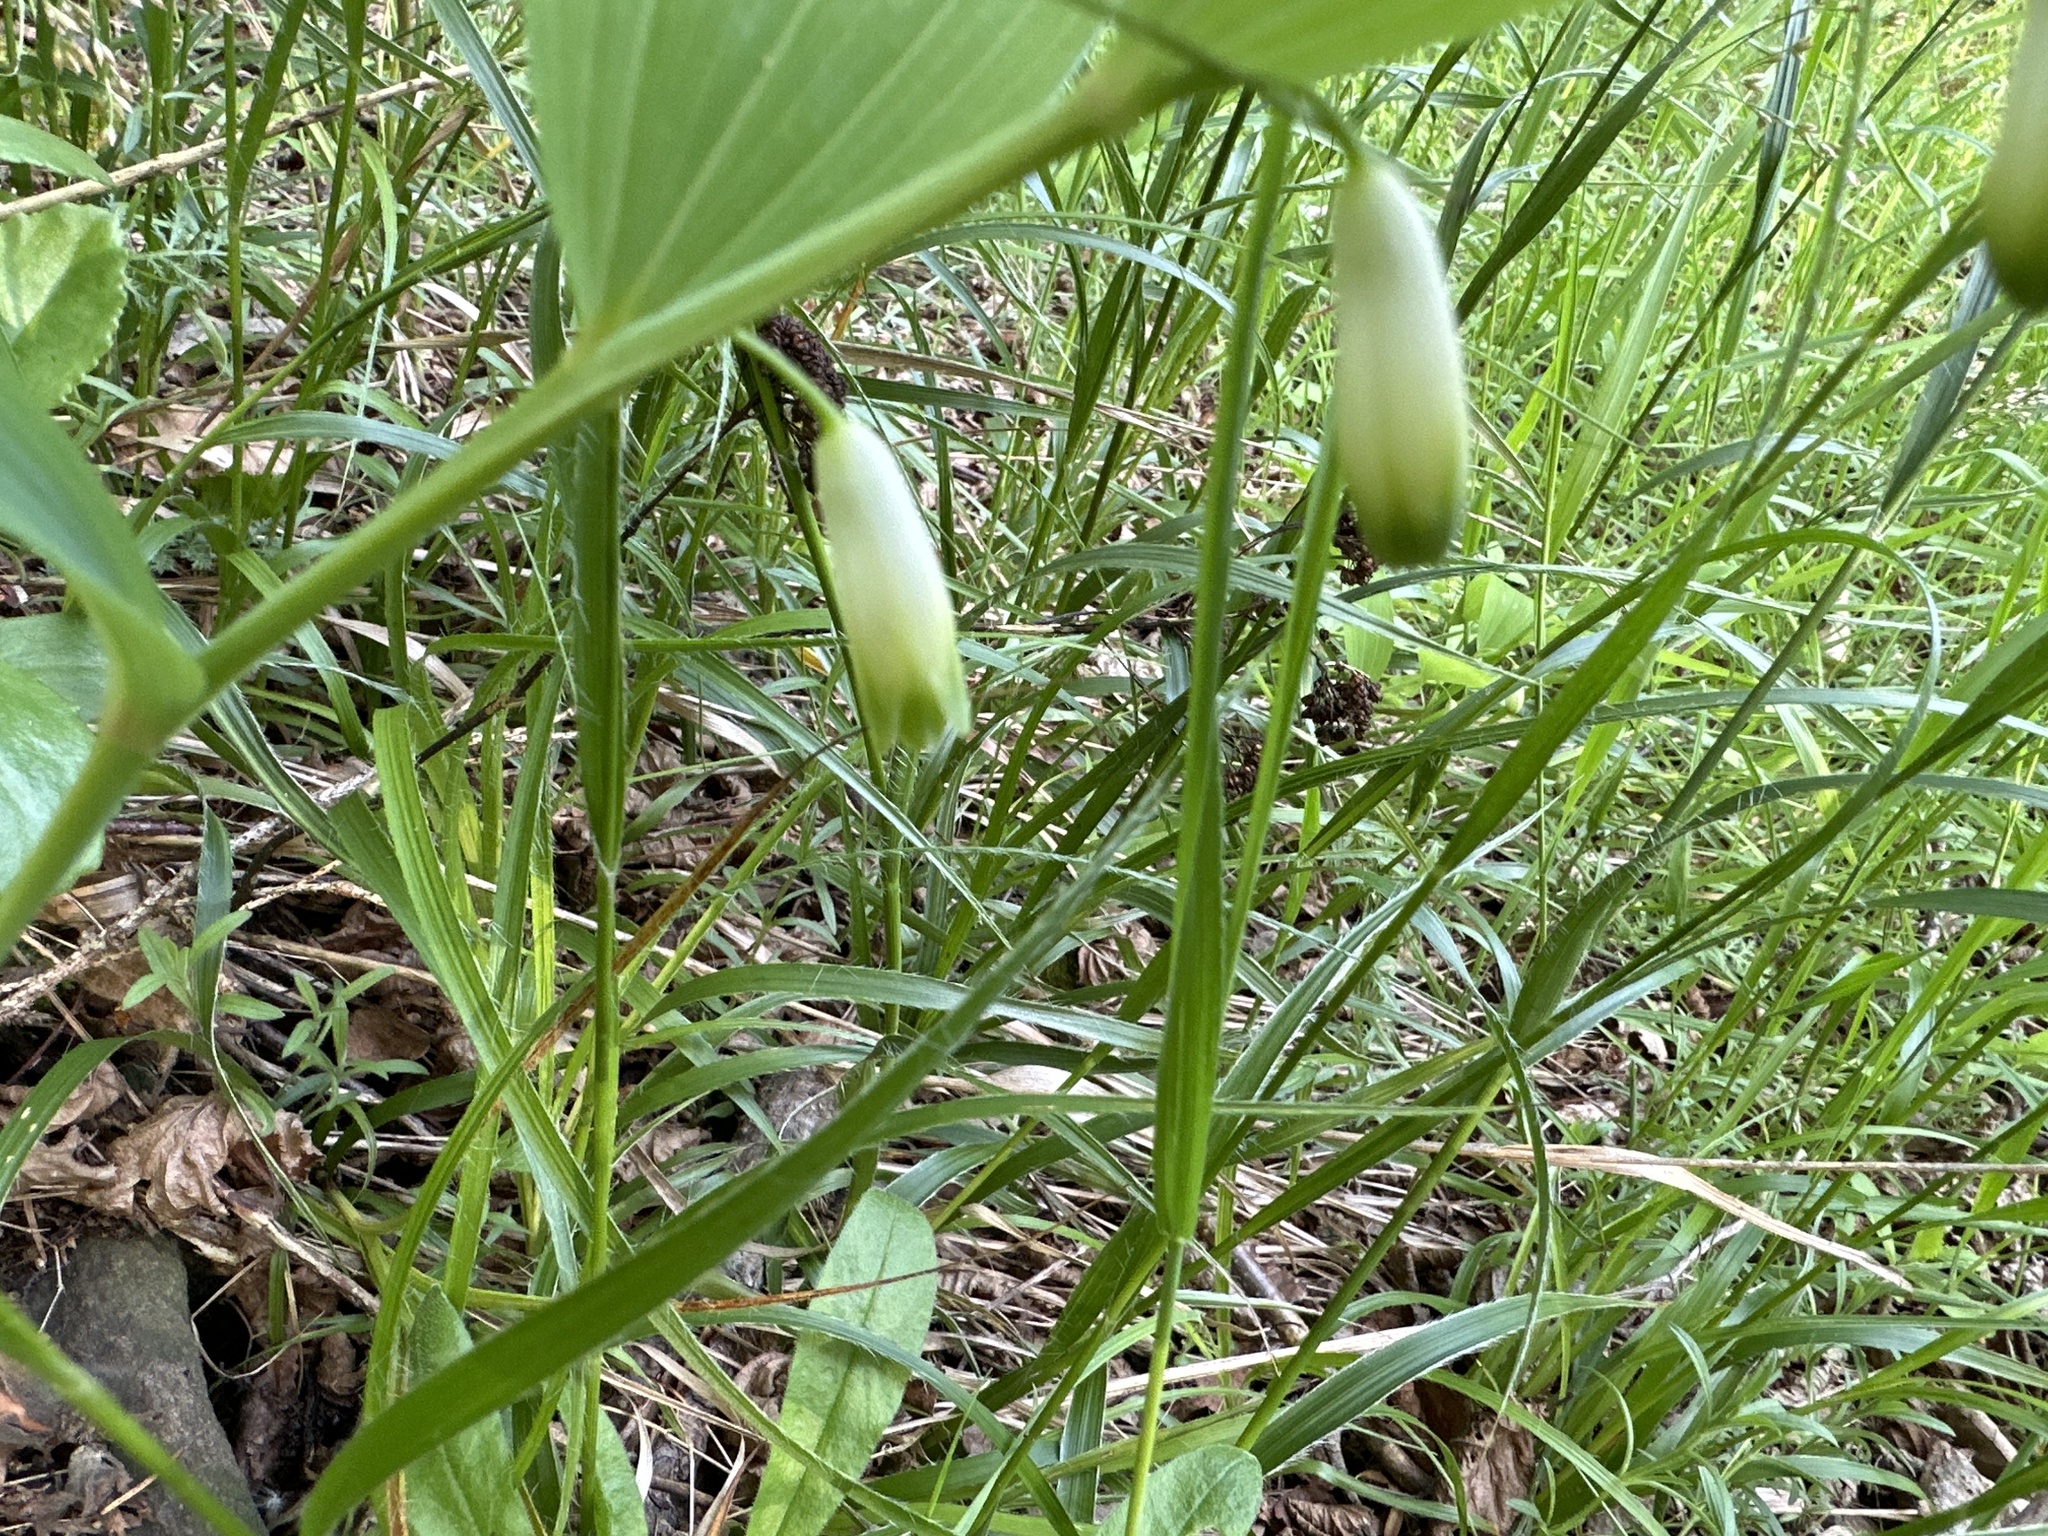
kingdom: Plantae
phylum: Tracheophyta
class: Liliopsida
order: Asparagales
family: Asparagaceae
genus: Polygonatum
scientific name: Polygonatum odoratum
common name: Angular solomon's-seal
